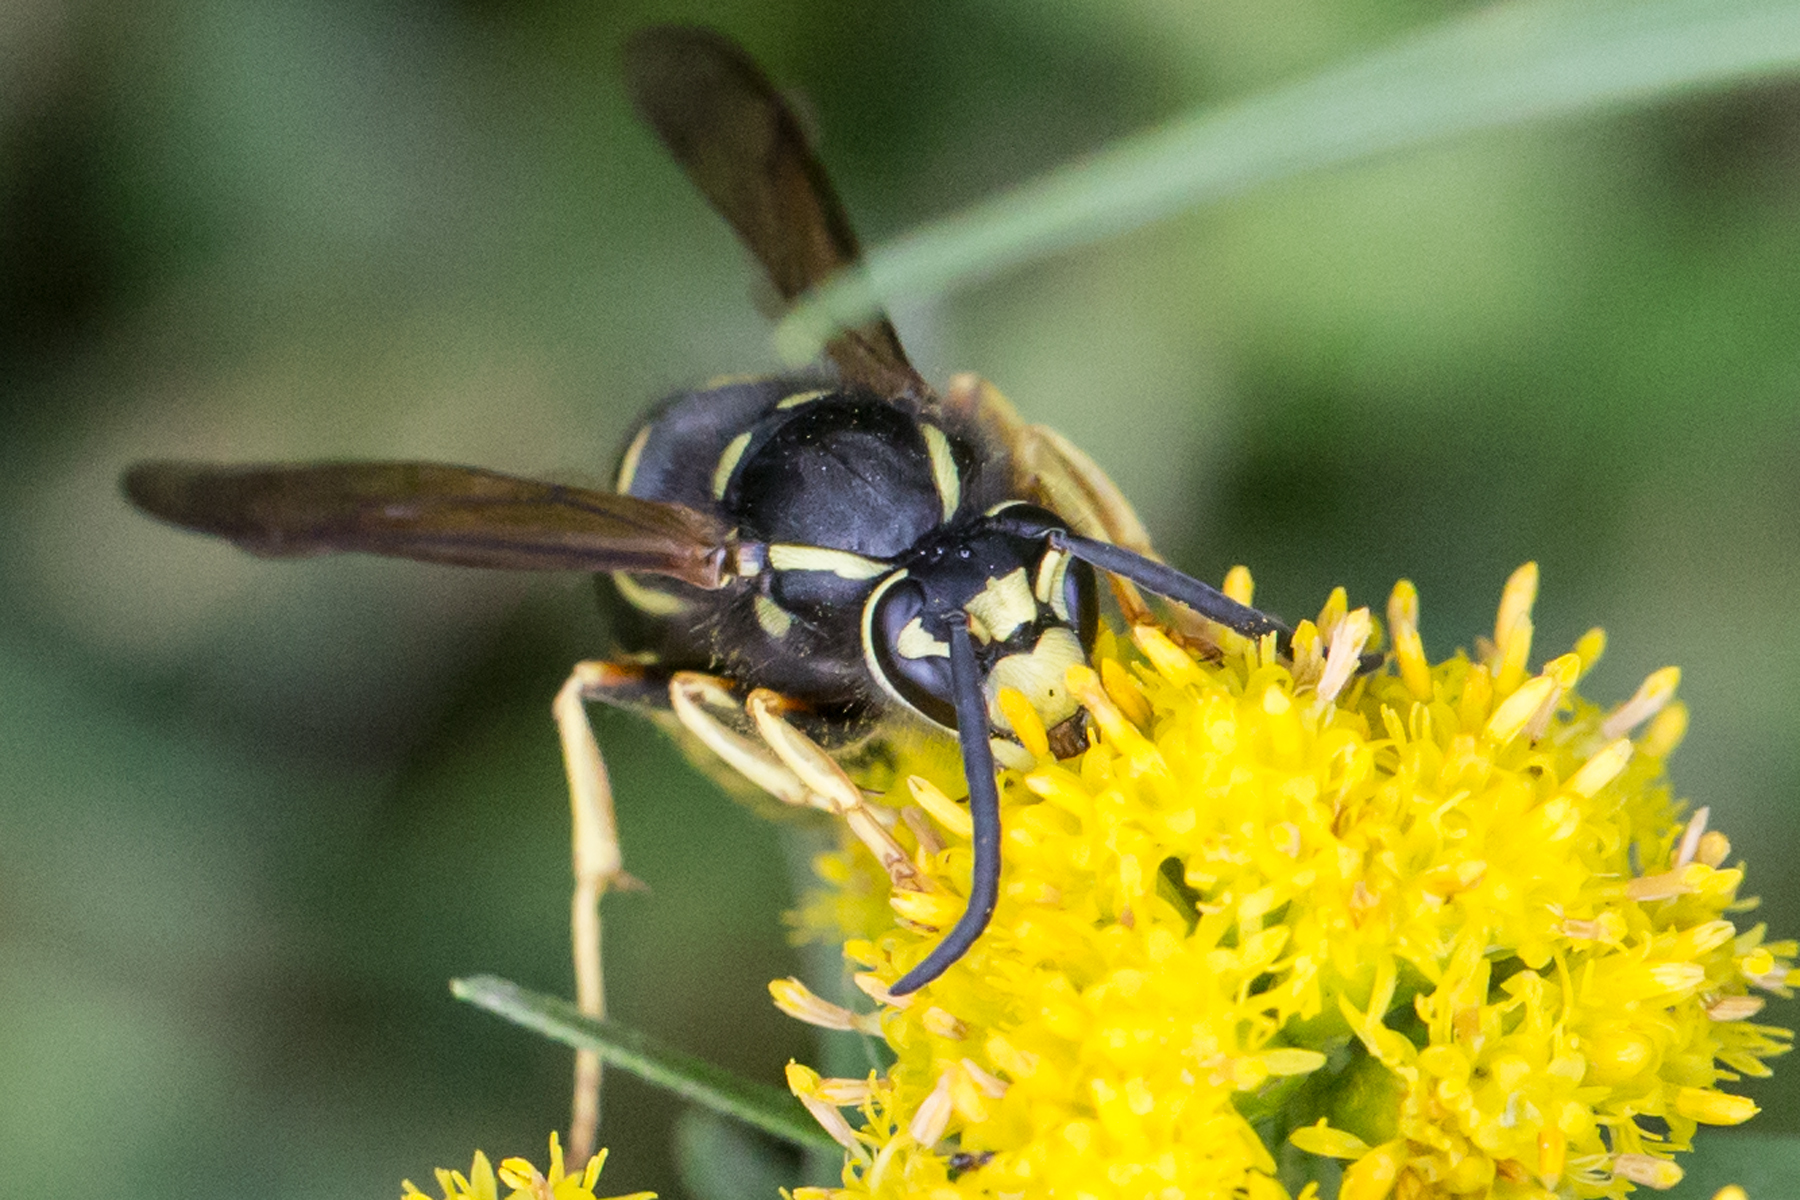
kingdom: Animalia
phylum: Arthropoda
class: Insecta
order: Hymenoptera
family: Vespidae
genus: Vespula
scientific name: Vespula vidua
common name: Widow yellowjacket
